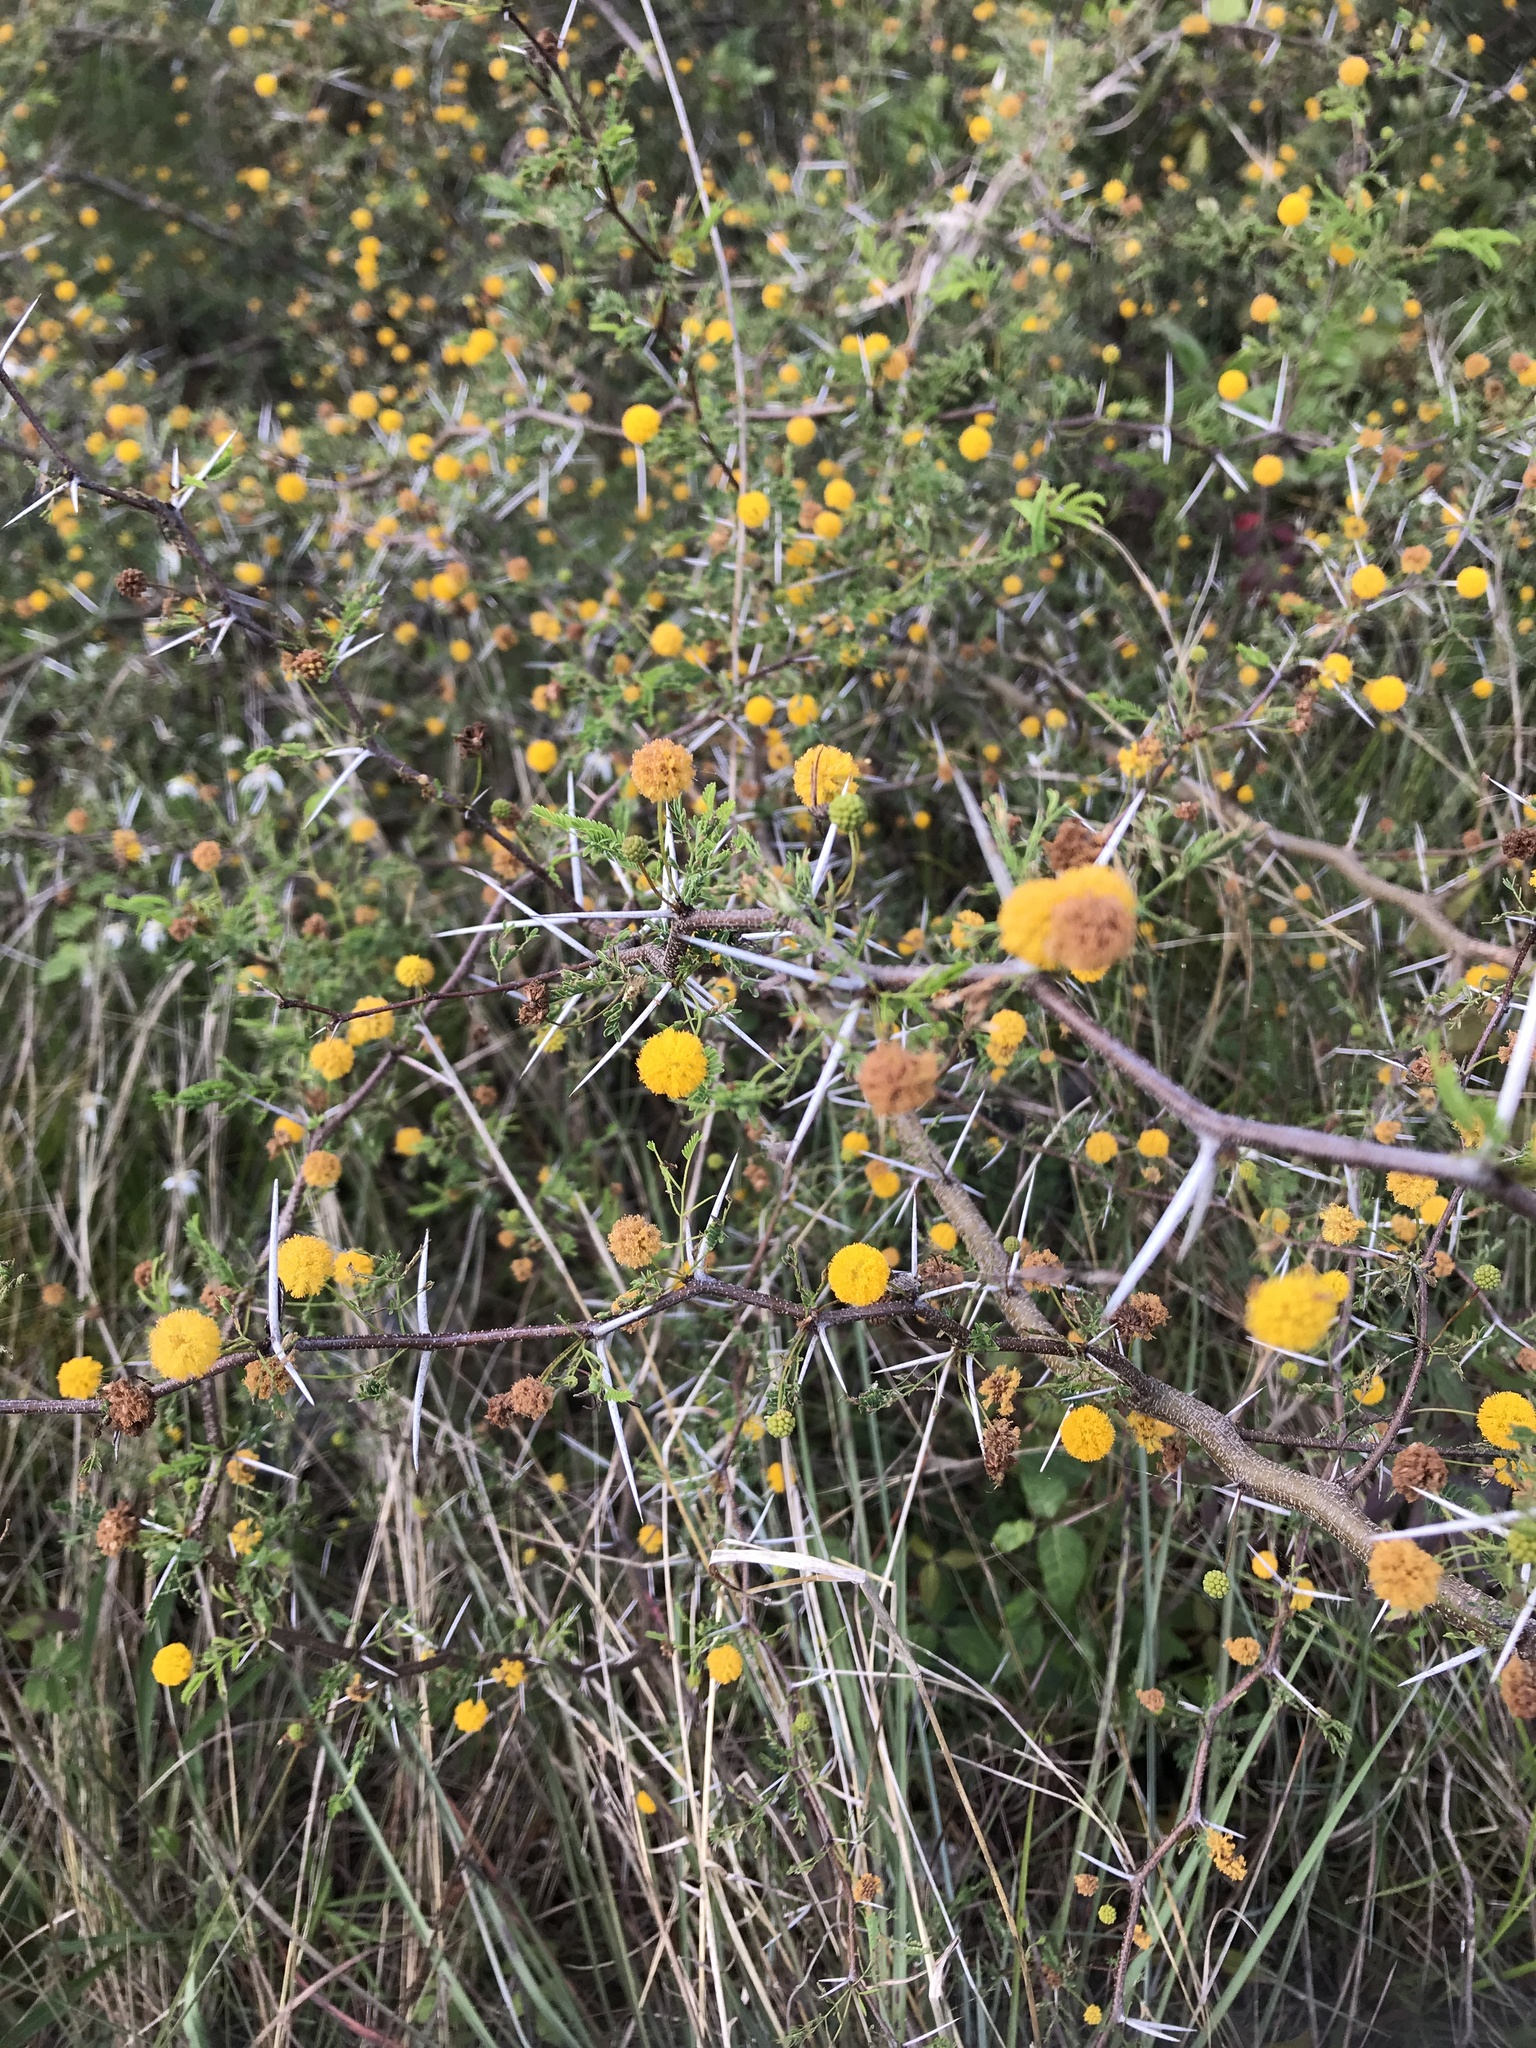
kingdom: Plantae
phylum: Tracheophyta
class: Magnoliopsida
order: Fabales
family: Fabaceae
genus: Vachellia
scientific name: Vachellia farnesiana
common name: Sweet acacia
